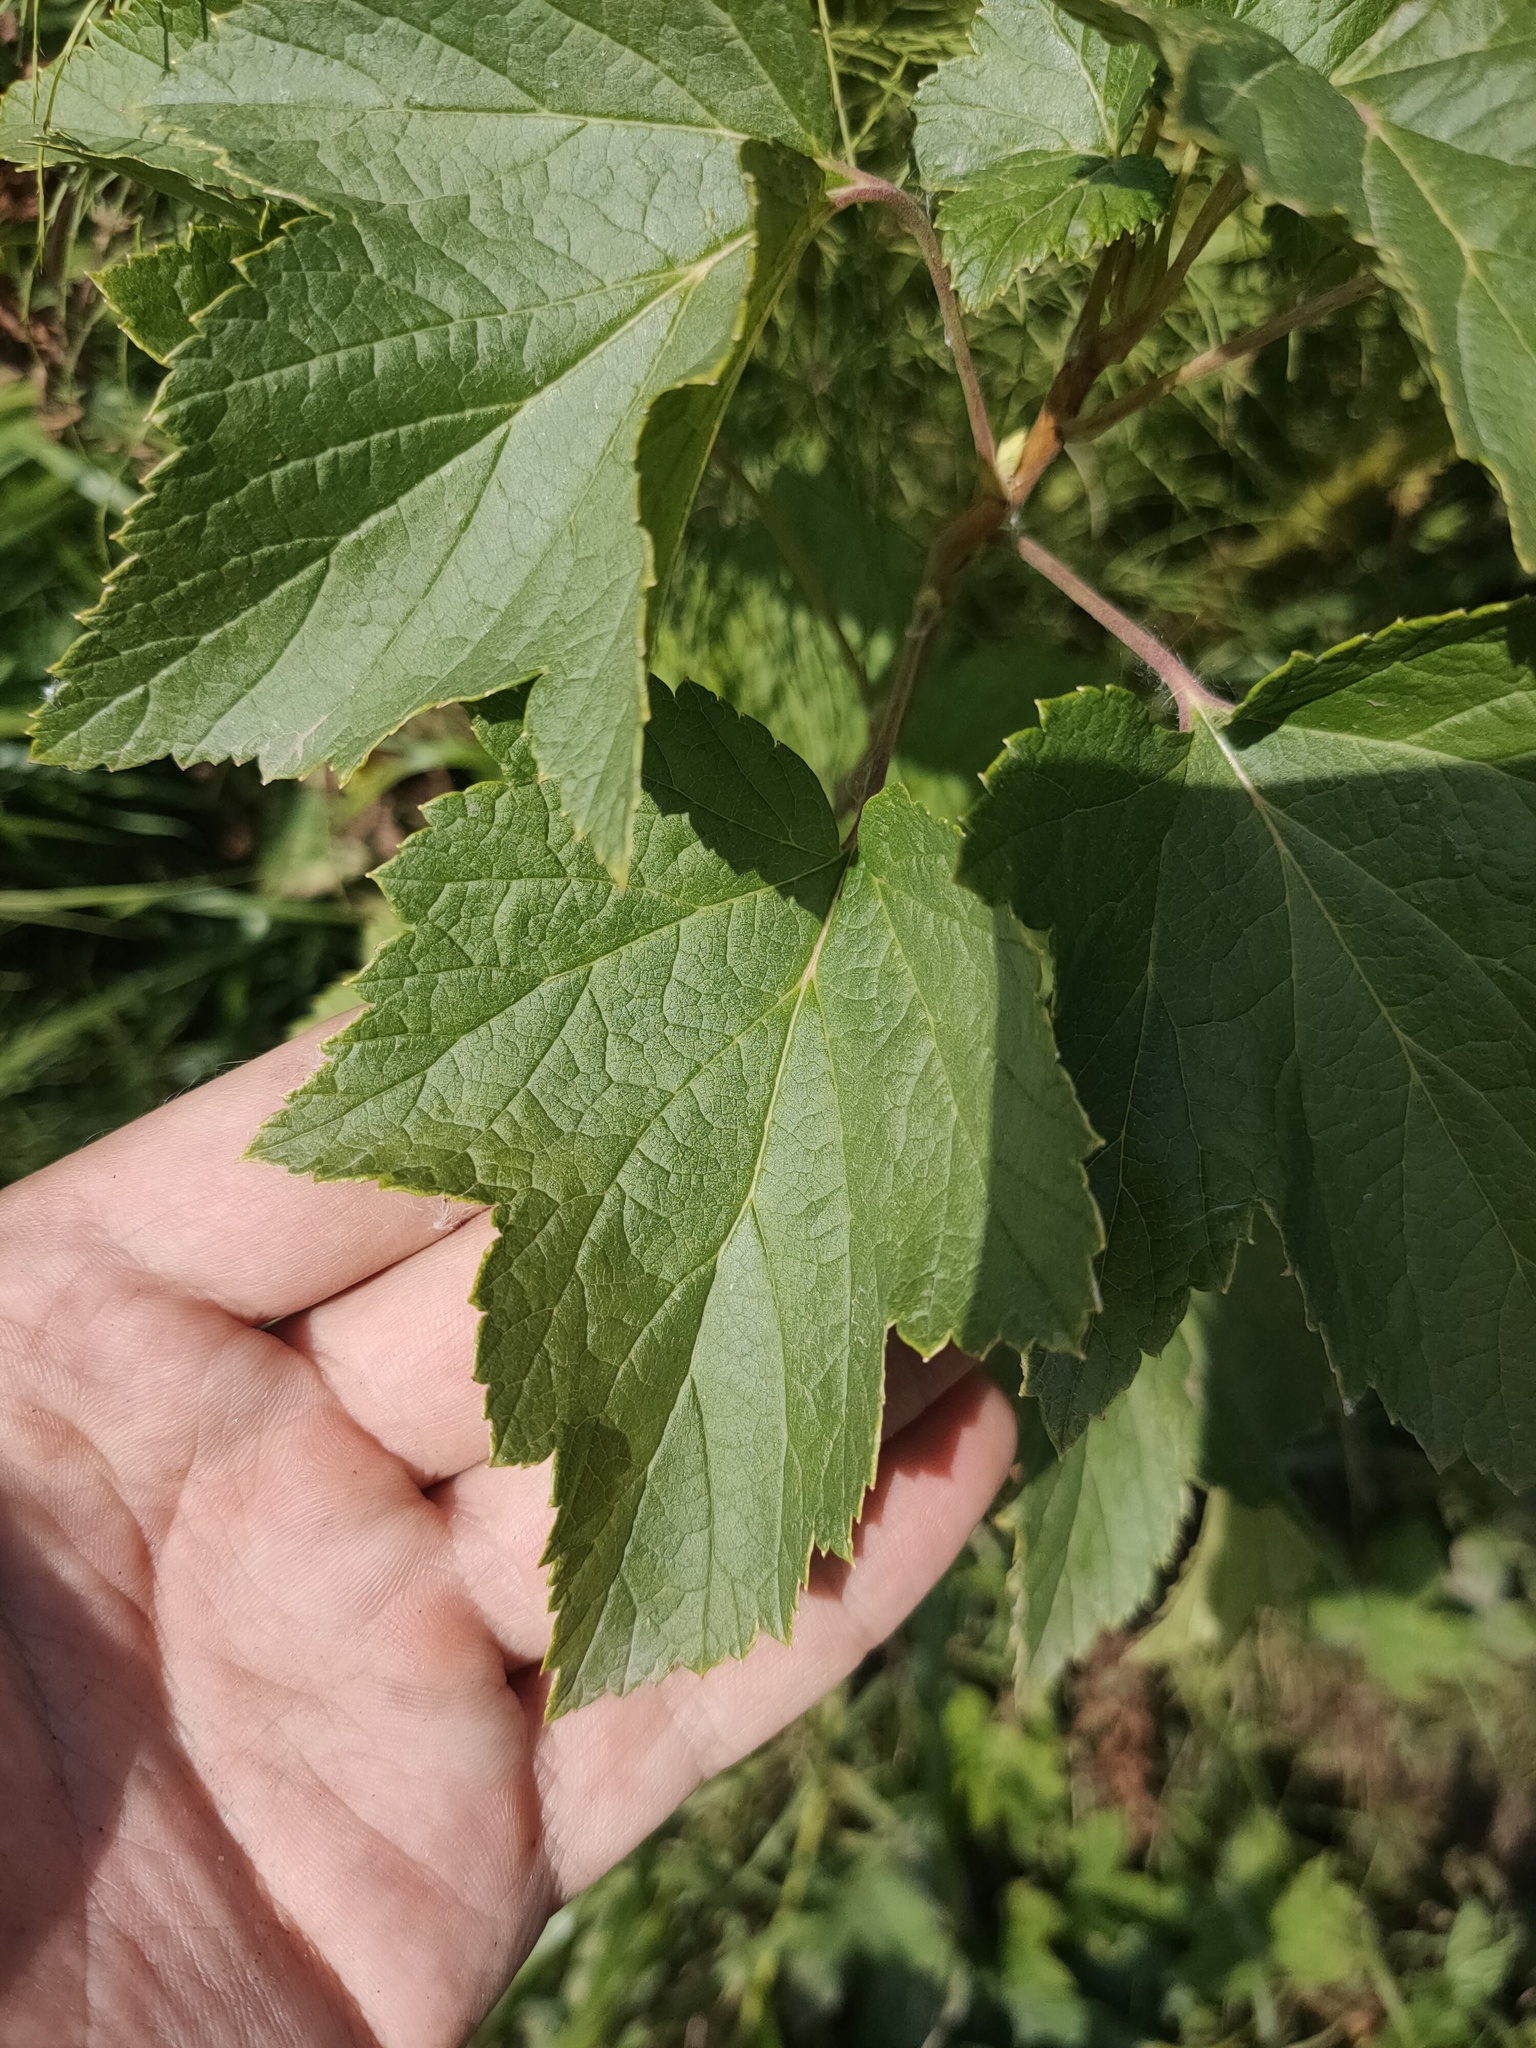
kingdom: Plantae
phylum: Tracheophyta
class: Magnoliopsida
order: Saxifragales
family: Grossulariaceae
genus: Ribes
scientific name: Ribes nigrum
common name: Black currant
